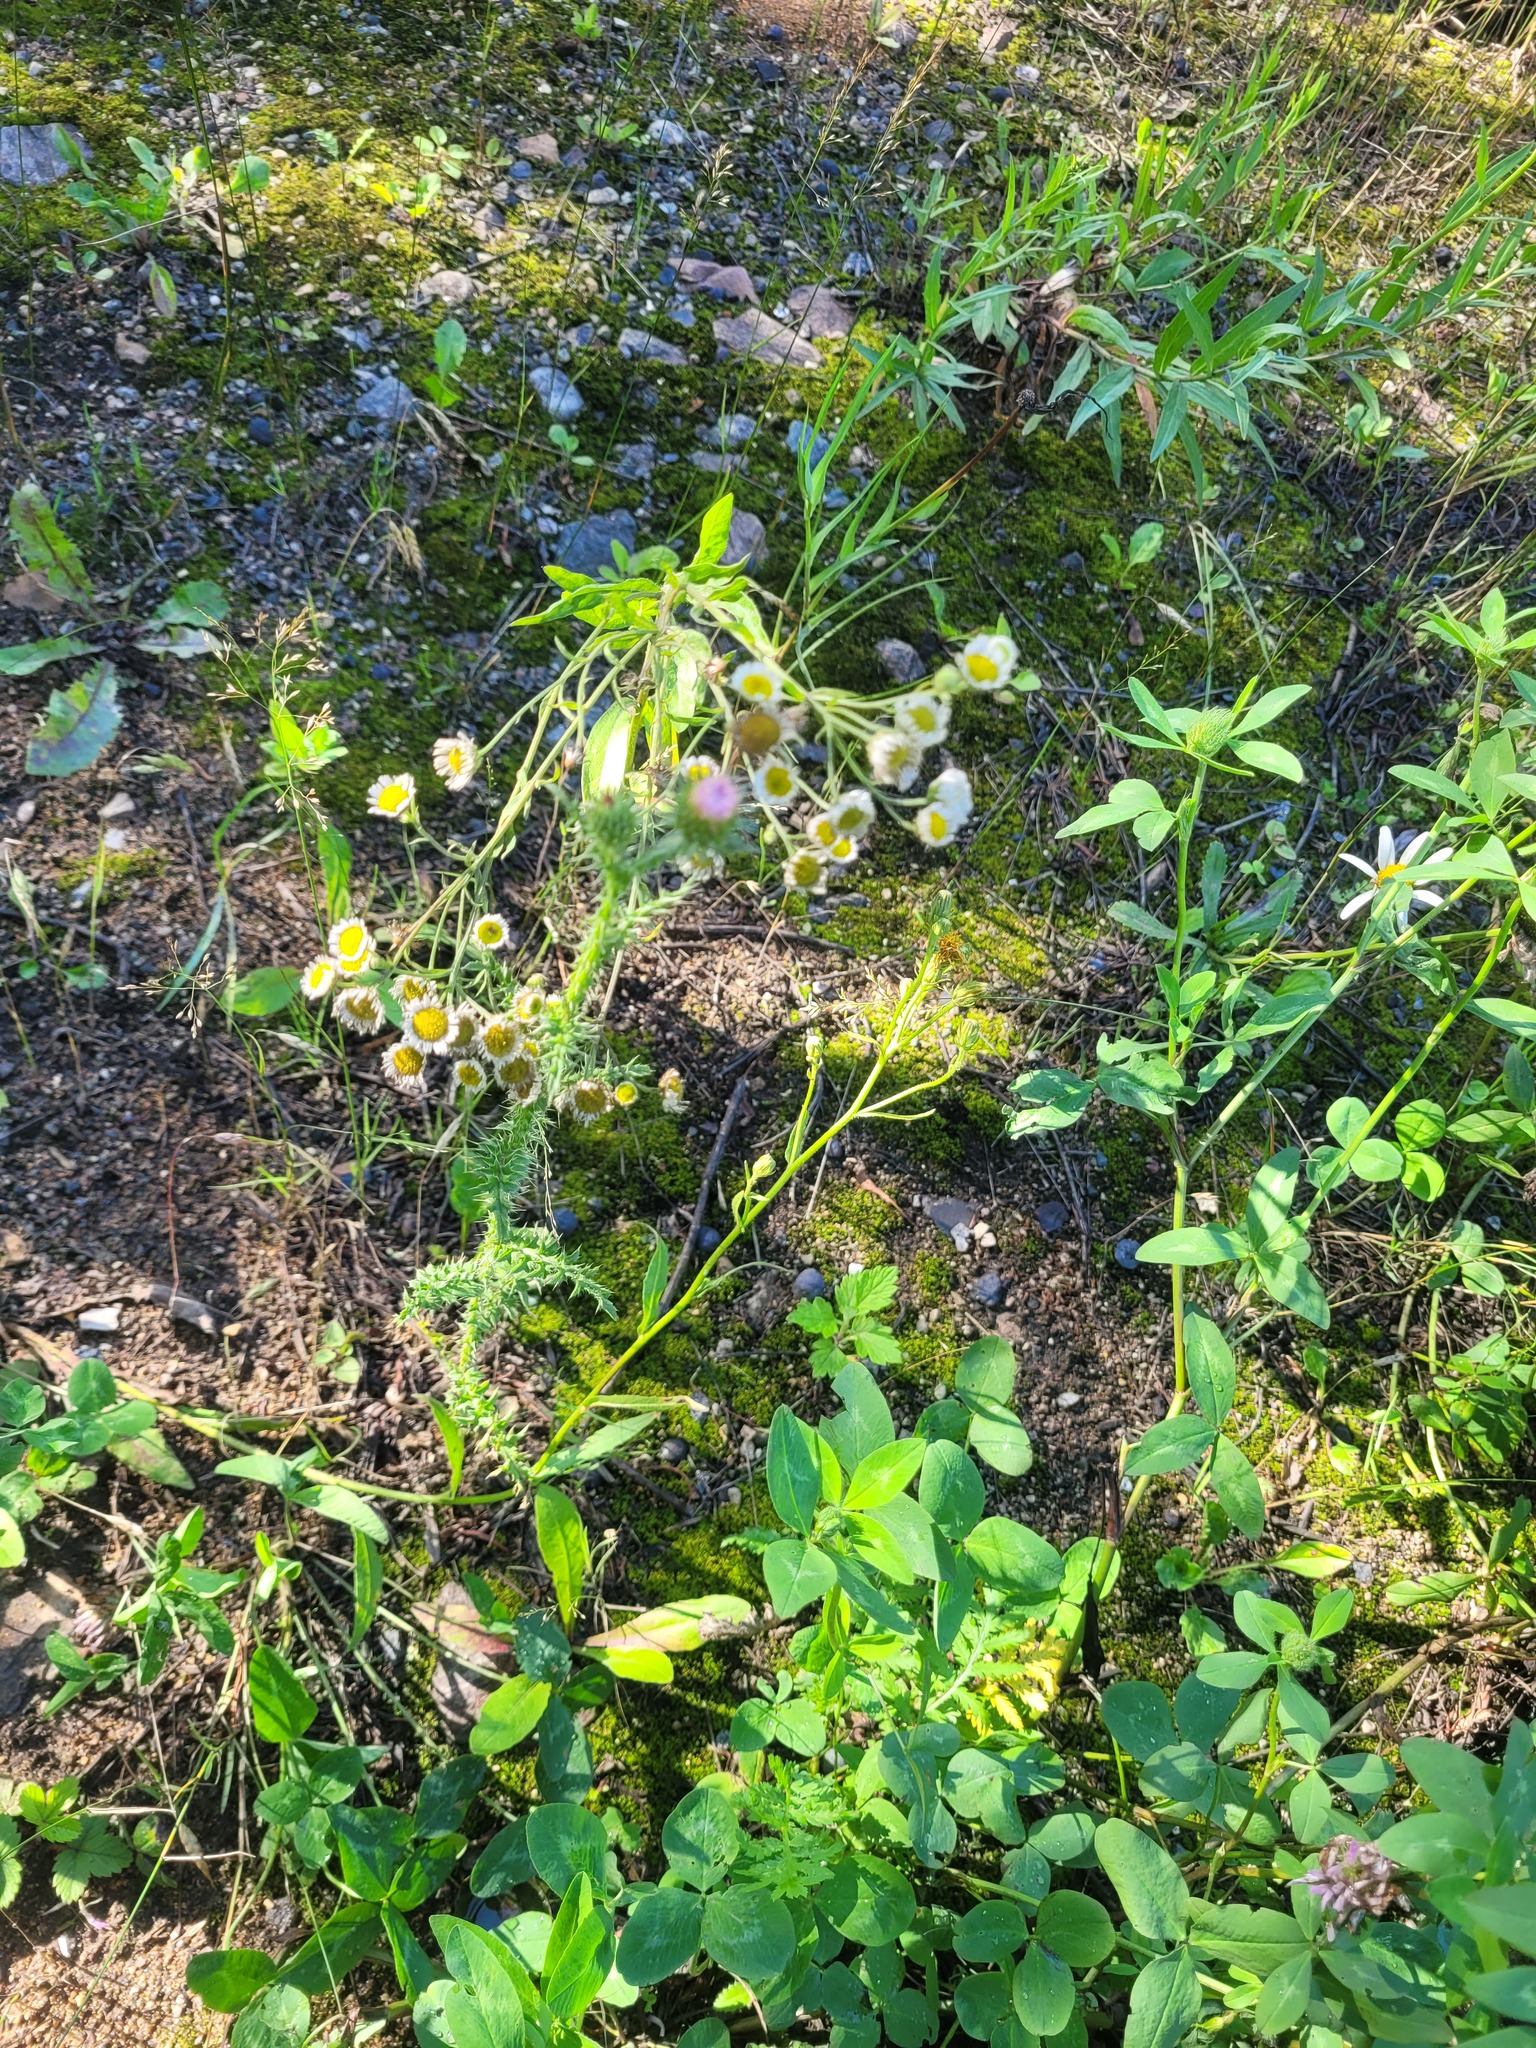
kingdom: Plantae
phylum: Tracheophyta
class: Magnoliopsida
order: Asterales
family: Asteraceae
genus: Erigeron
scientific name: Erigeron annuus
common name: Tall fleabane
